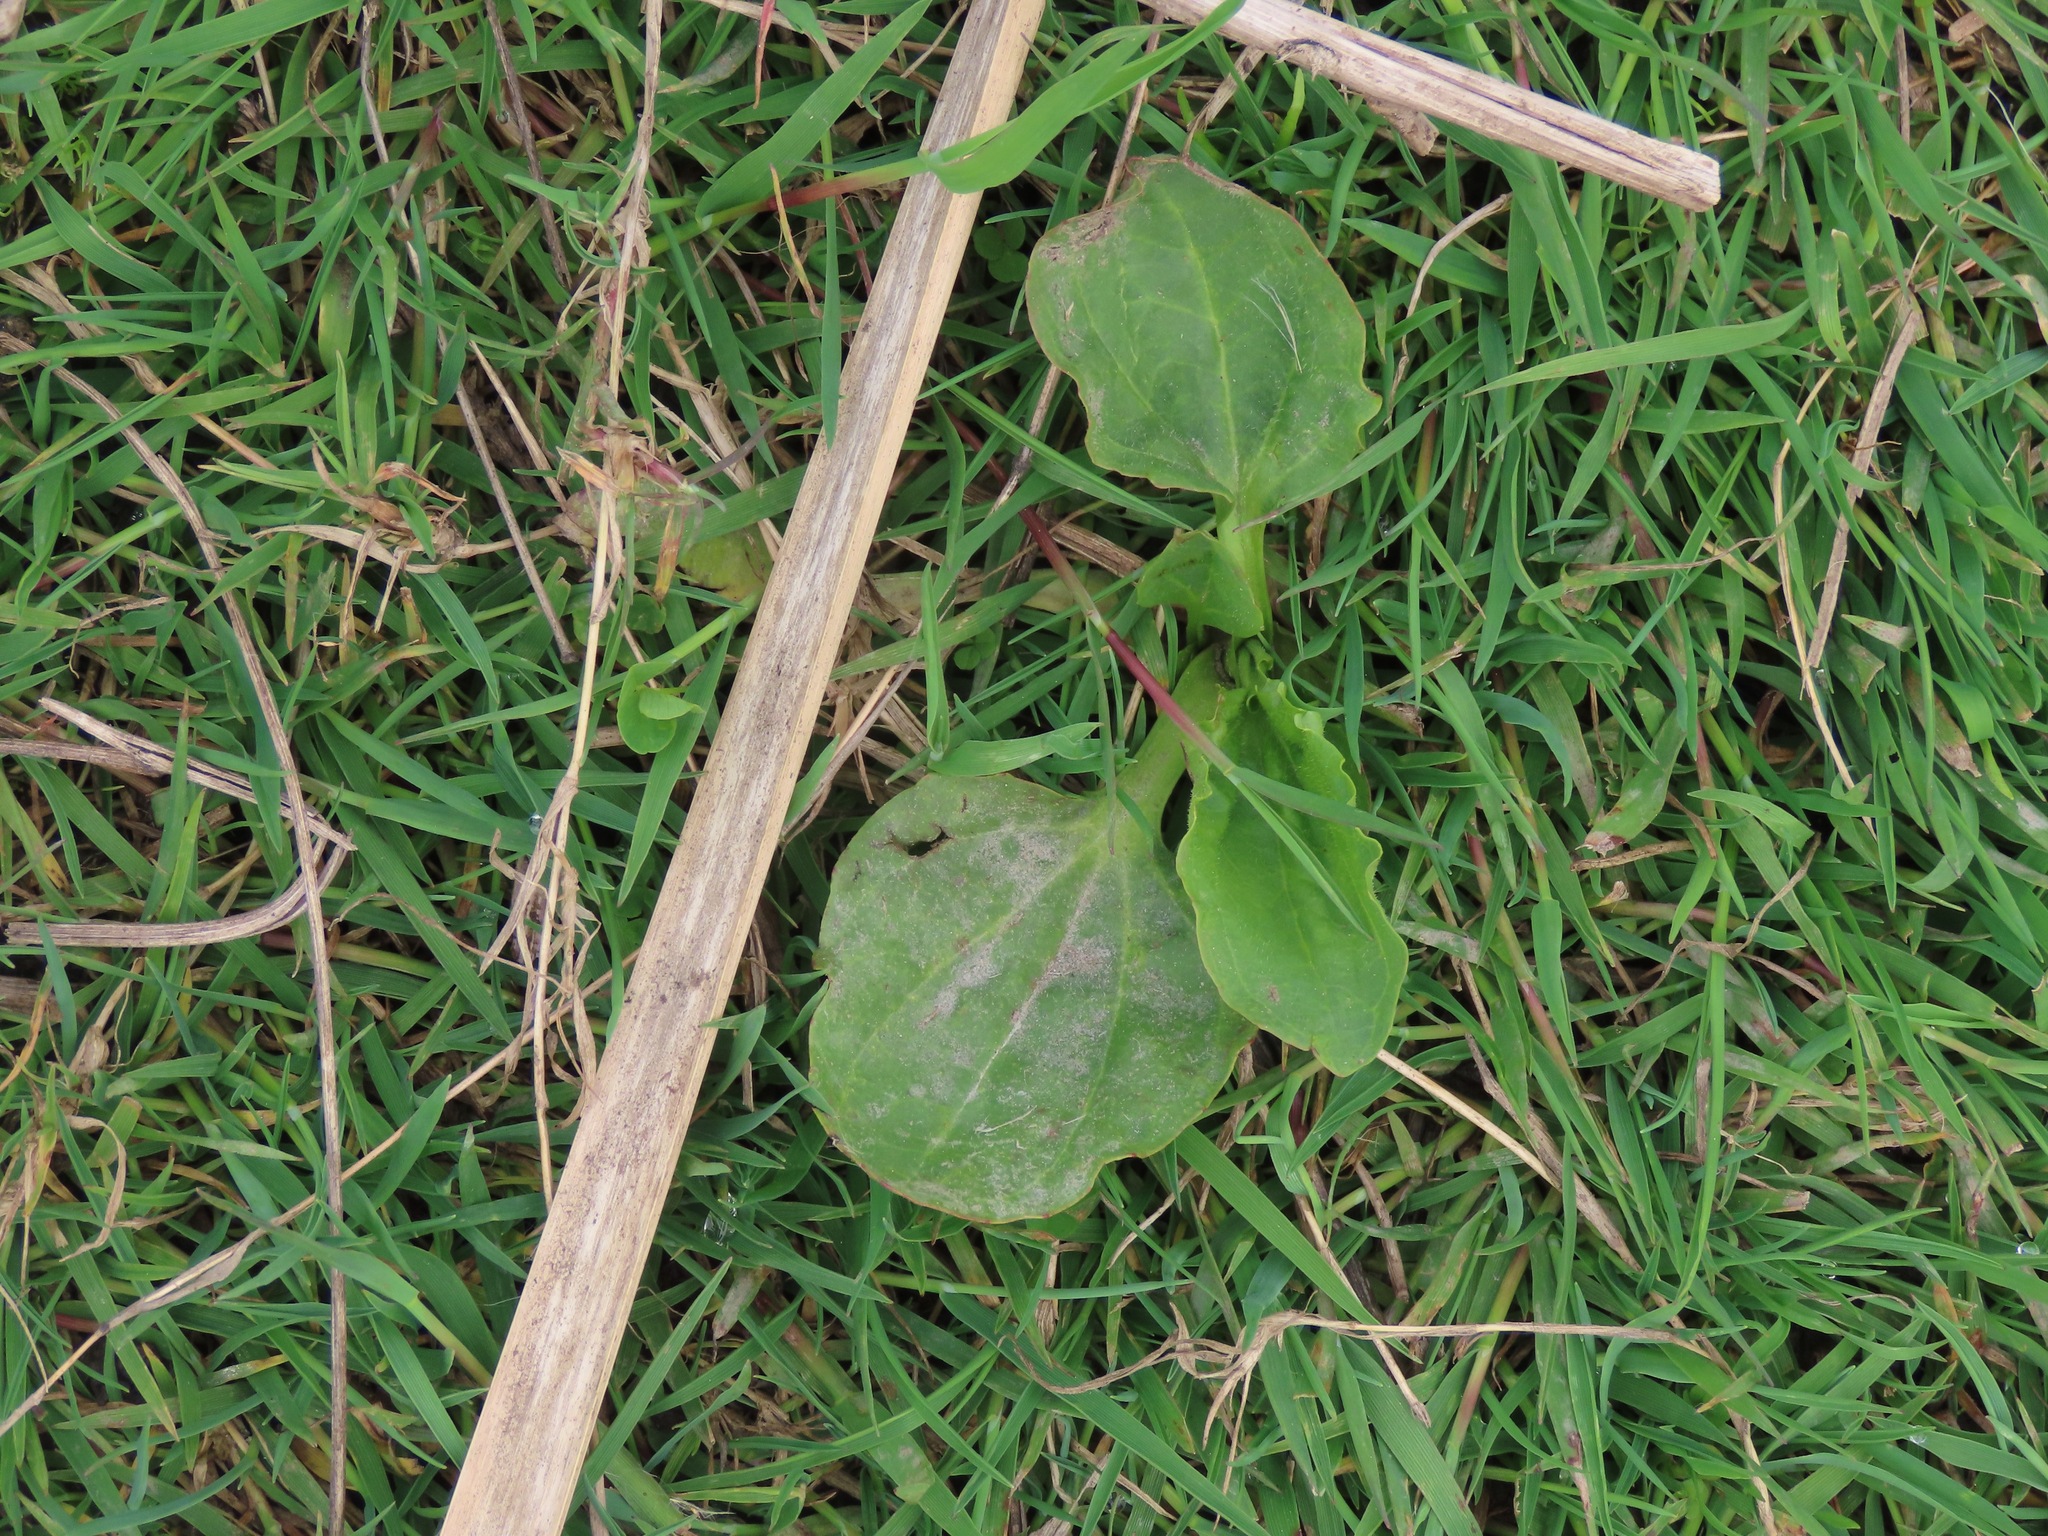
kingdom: Plantae
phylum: Tracheophyta
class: Magnoliopsida
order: Lamiales
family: Plantaginaceae
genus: Plantago
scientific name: Plantago major
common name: Common plantain
